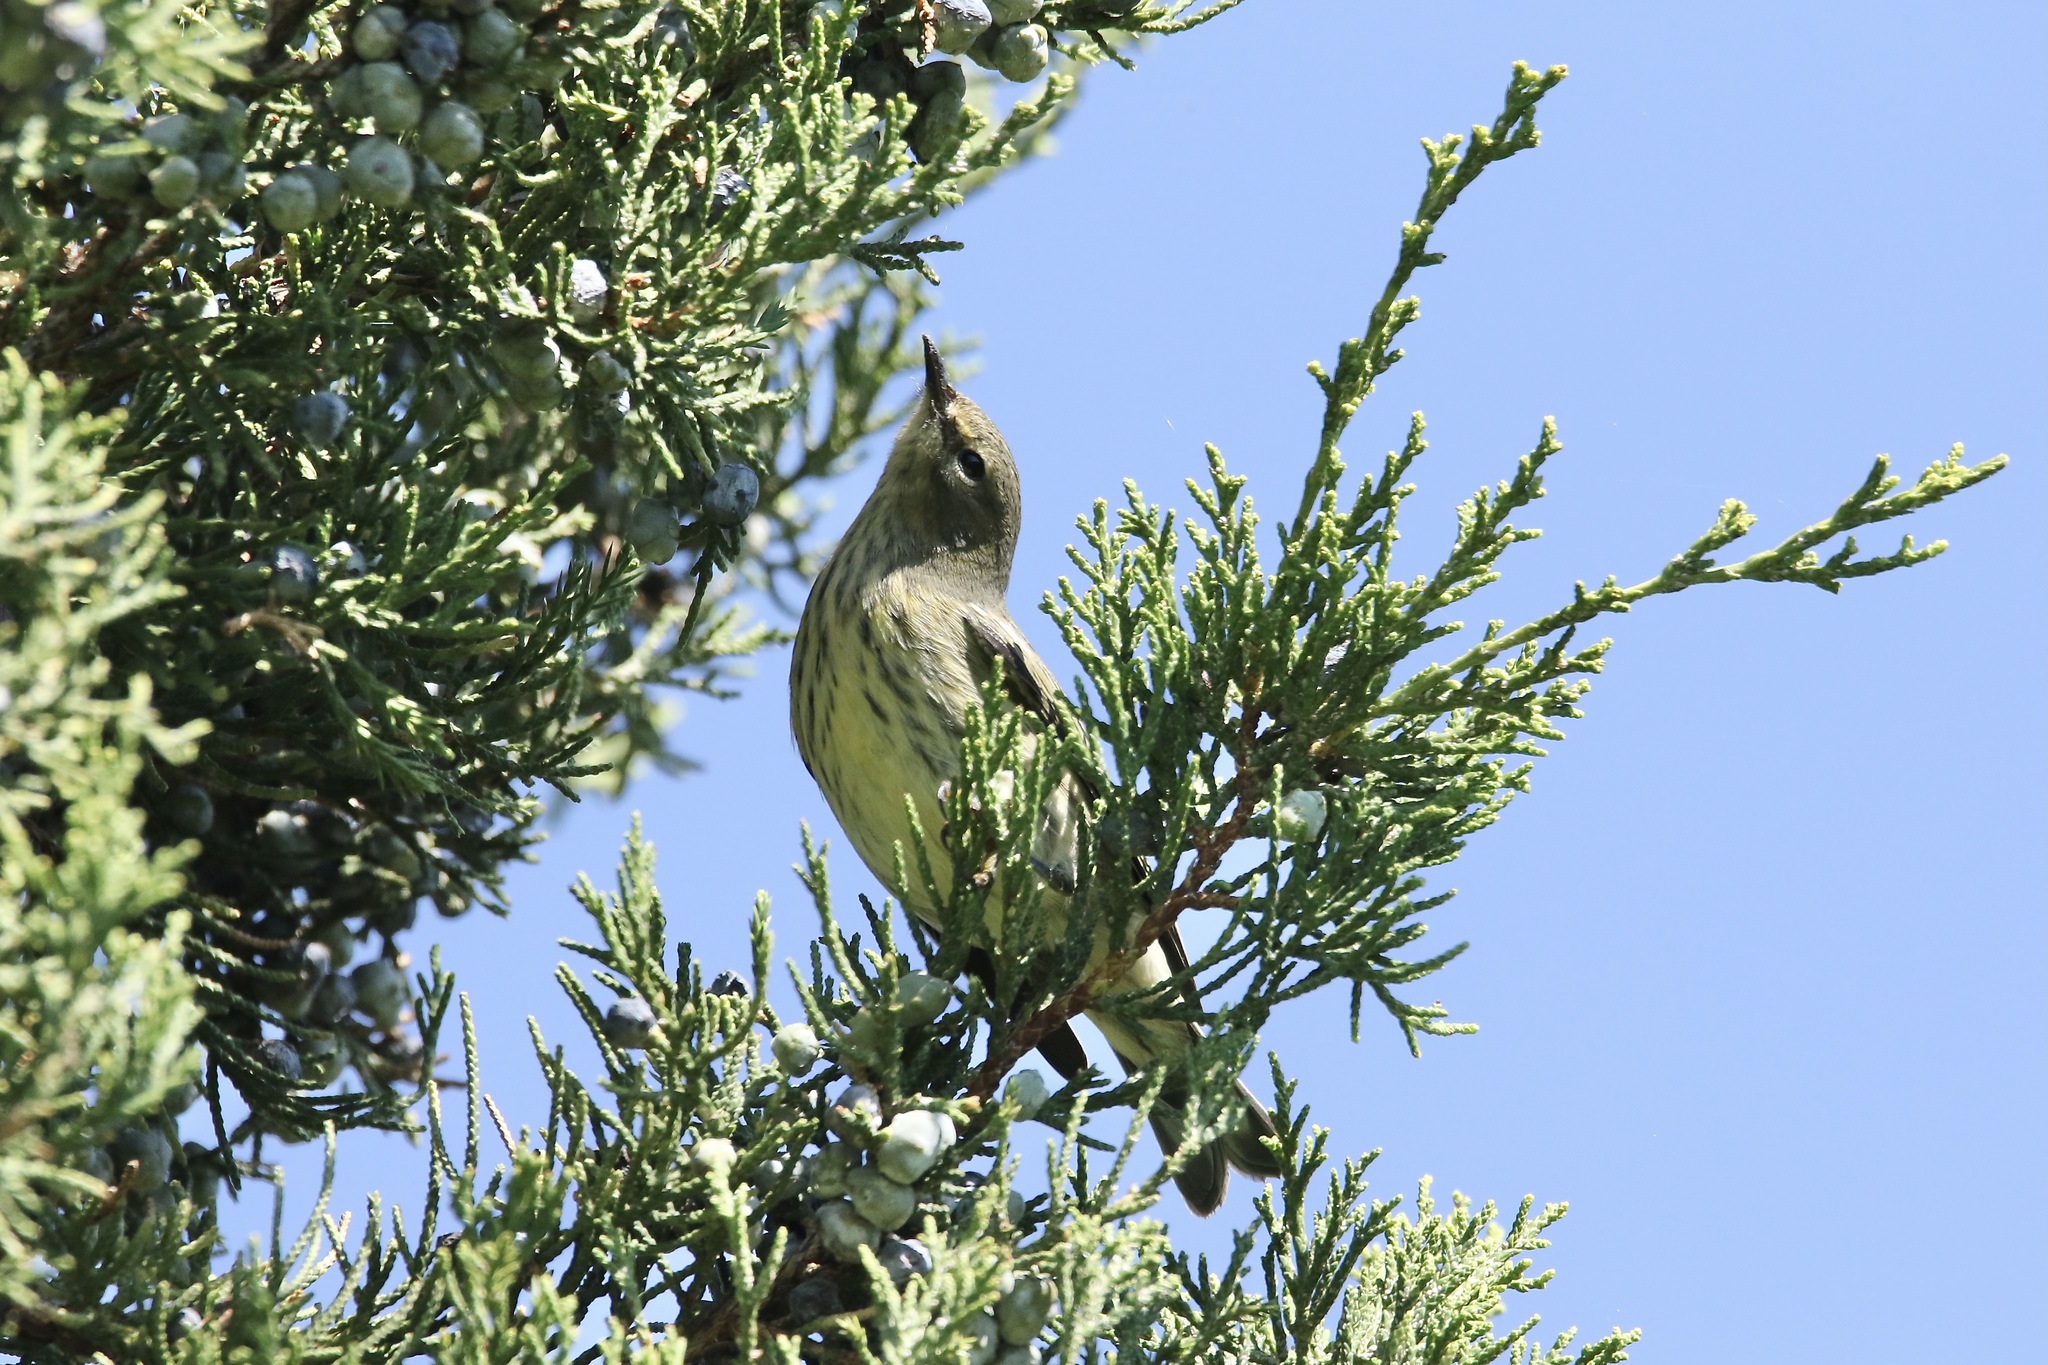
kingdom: Animalia
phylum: Chordata
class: Aves
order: Passeriformes
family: Parulidae
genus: Setophaga
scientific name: Setophaga tigrina
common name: Cape may warbler
